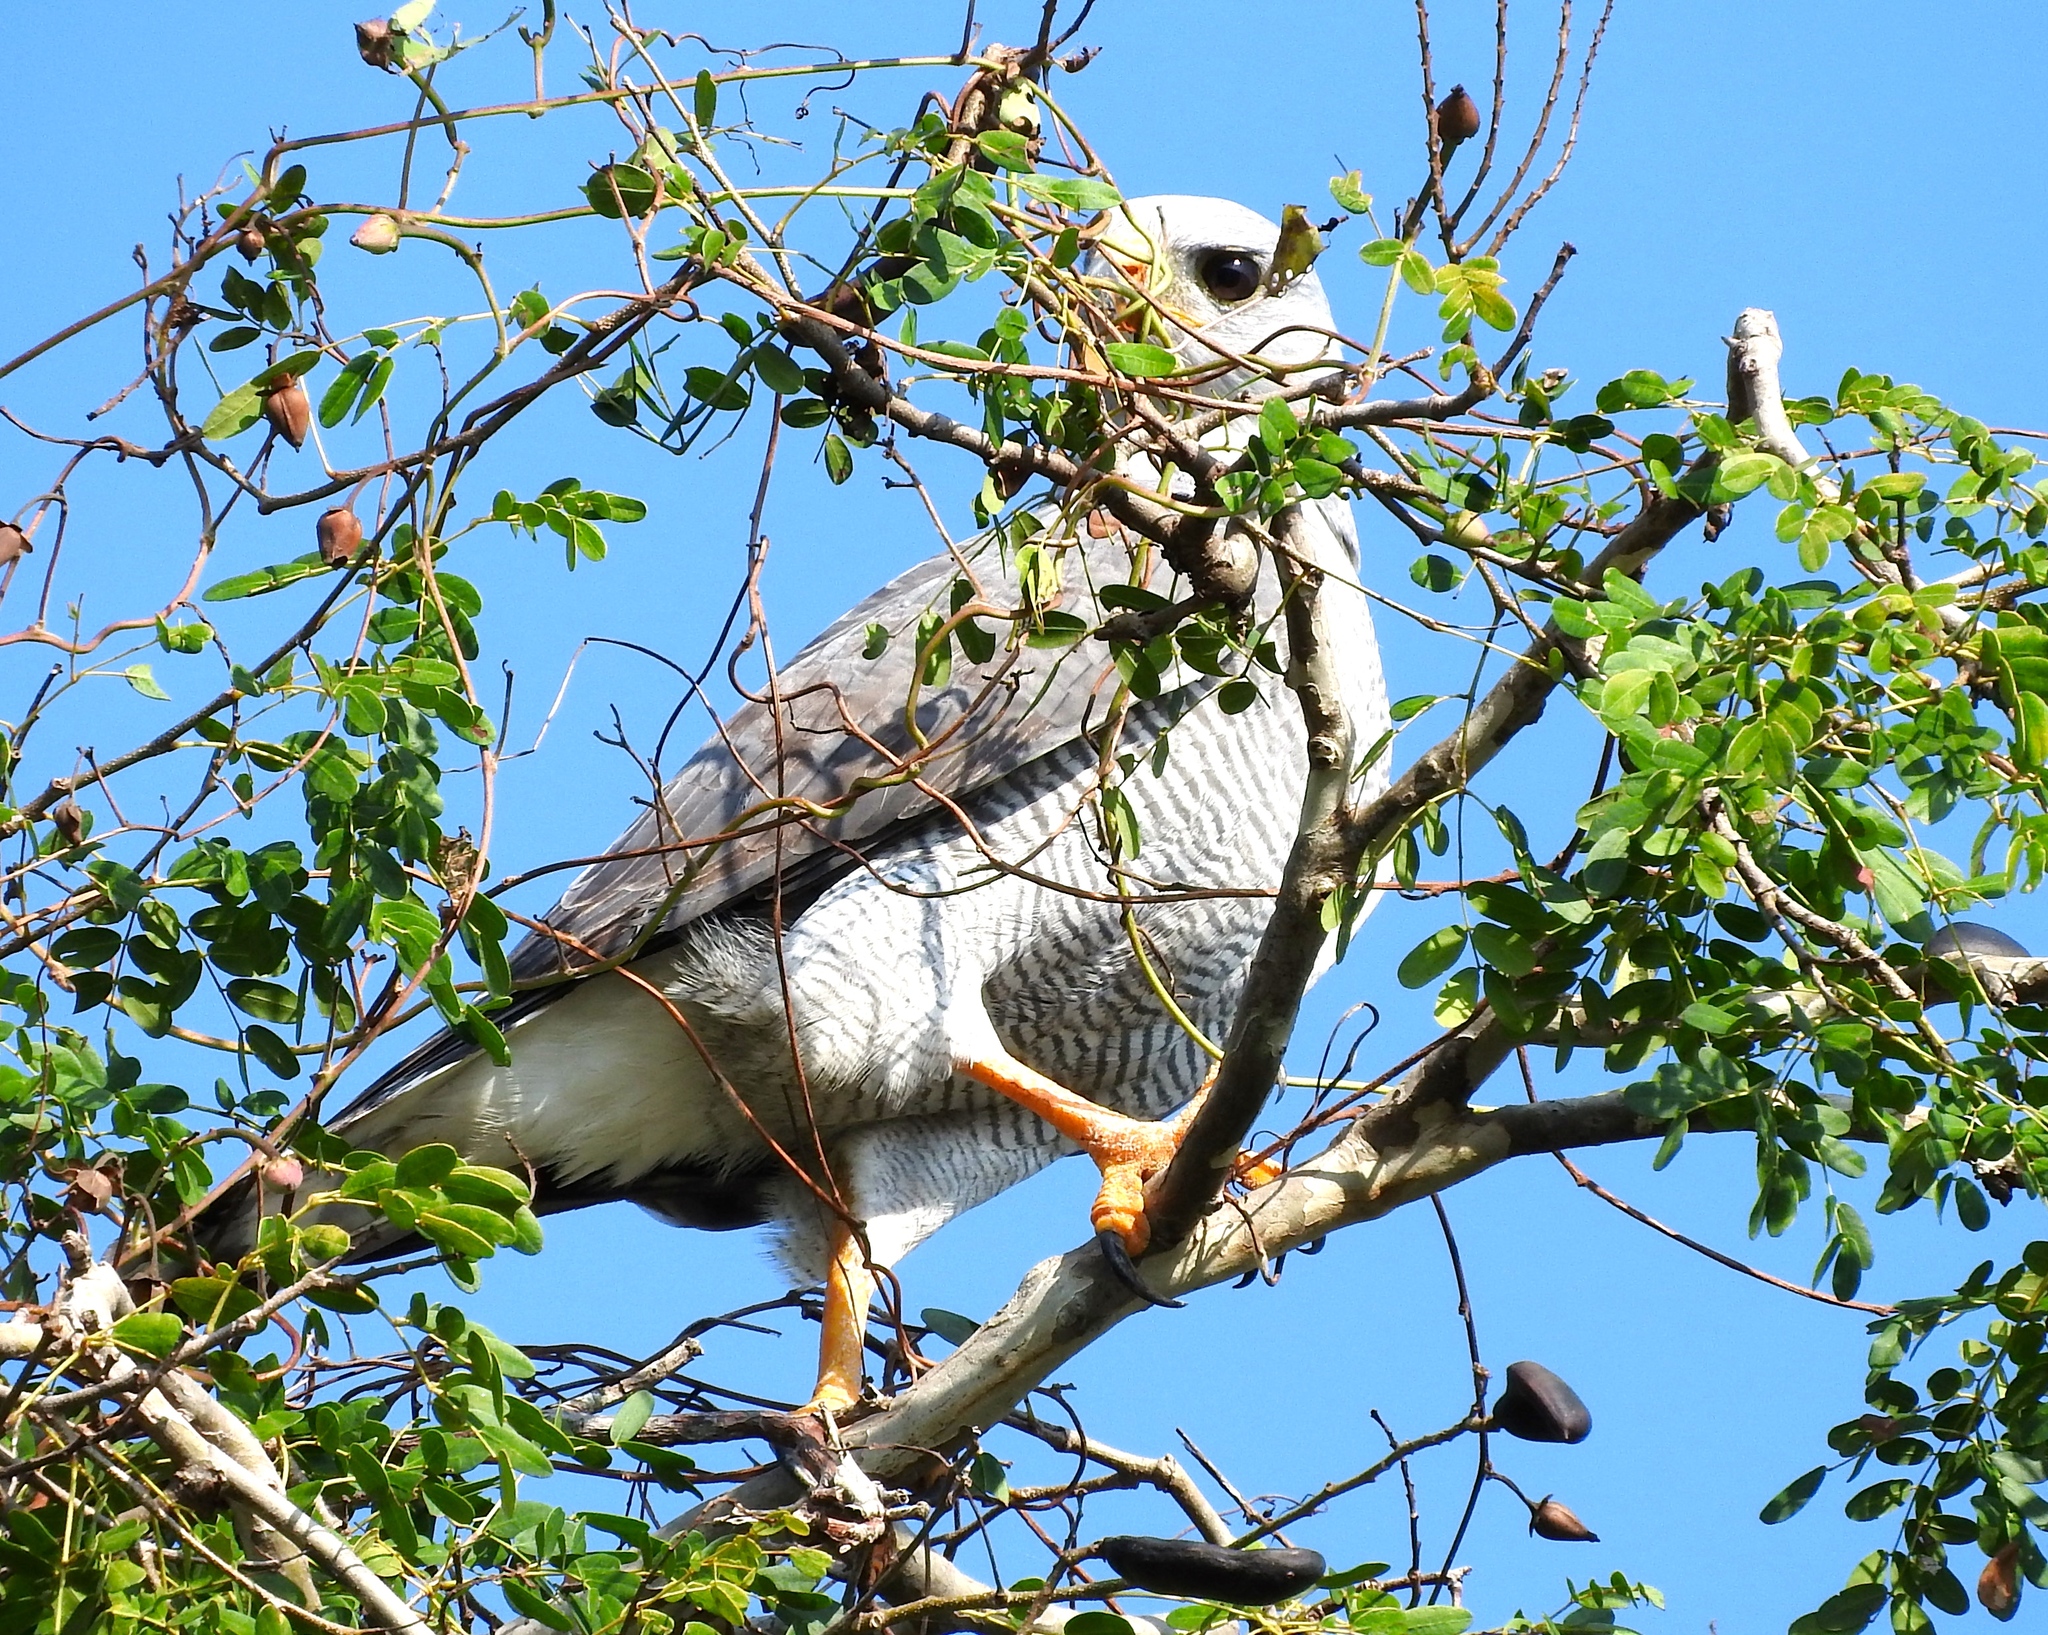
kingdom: Animalia
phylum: Chordata
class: Aves
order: Accipitriformes
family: Accipitridae
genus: Buteo
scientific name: Buteo nitidus
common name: Grey-lined hawk
